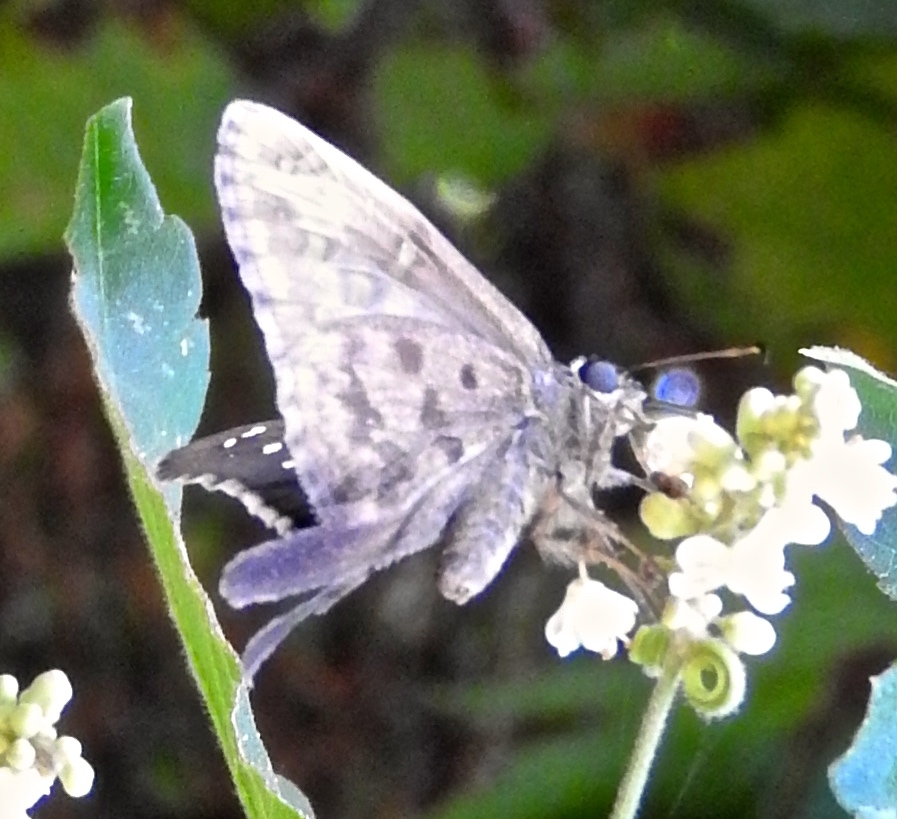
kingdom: Animalia
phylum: Arthropoda
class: Insecta
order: Lepidoptera
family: Hesperiidae
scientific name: Hesperiidae
